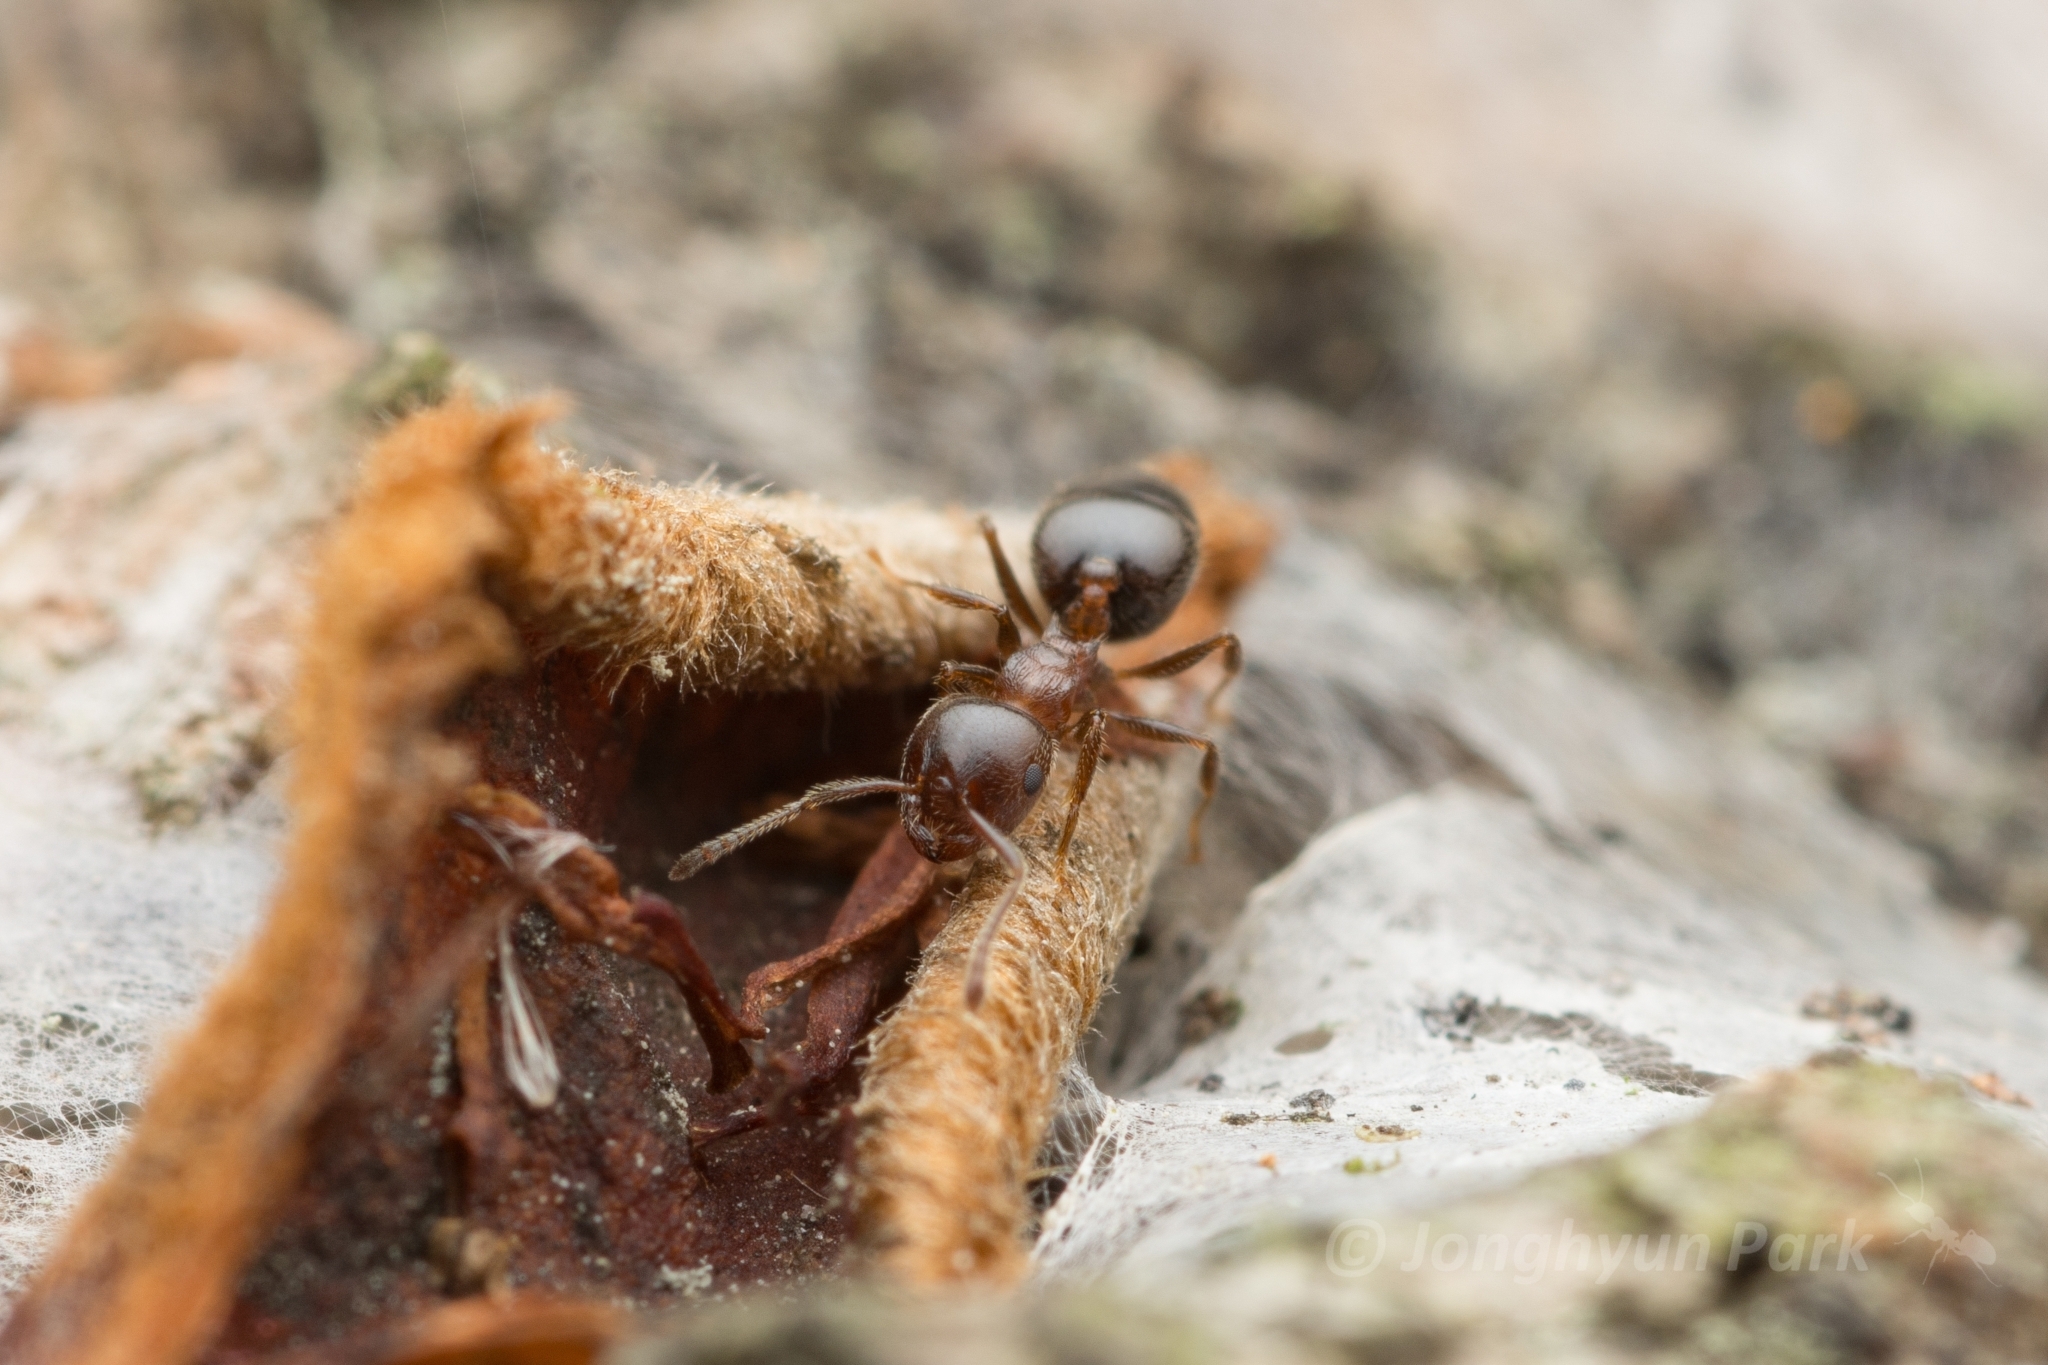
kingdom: Animalia
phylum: Arthropoda
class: Insecta
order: Hymenoptera
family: Formicidae
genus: Crematogaster
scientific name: Crematogaster matsumurai
